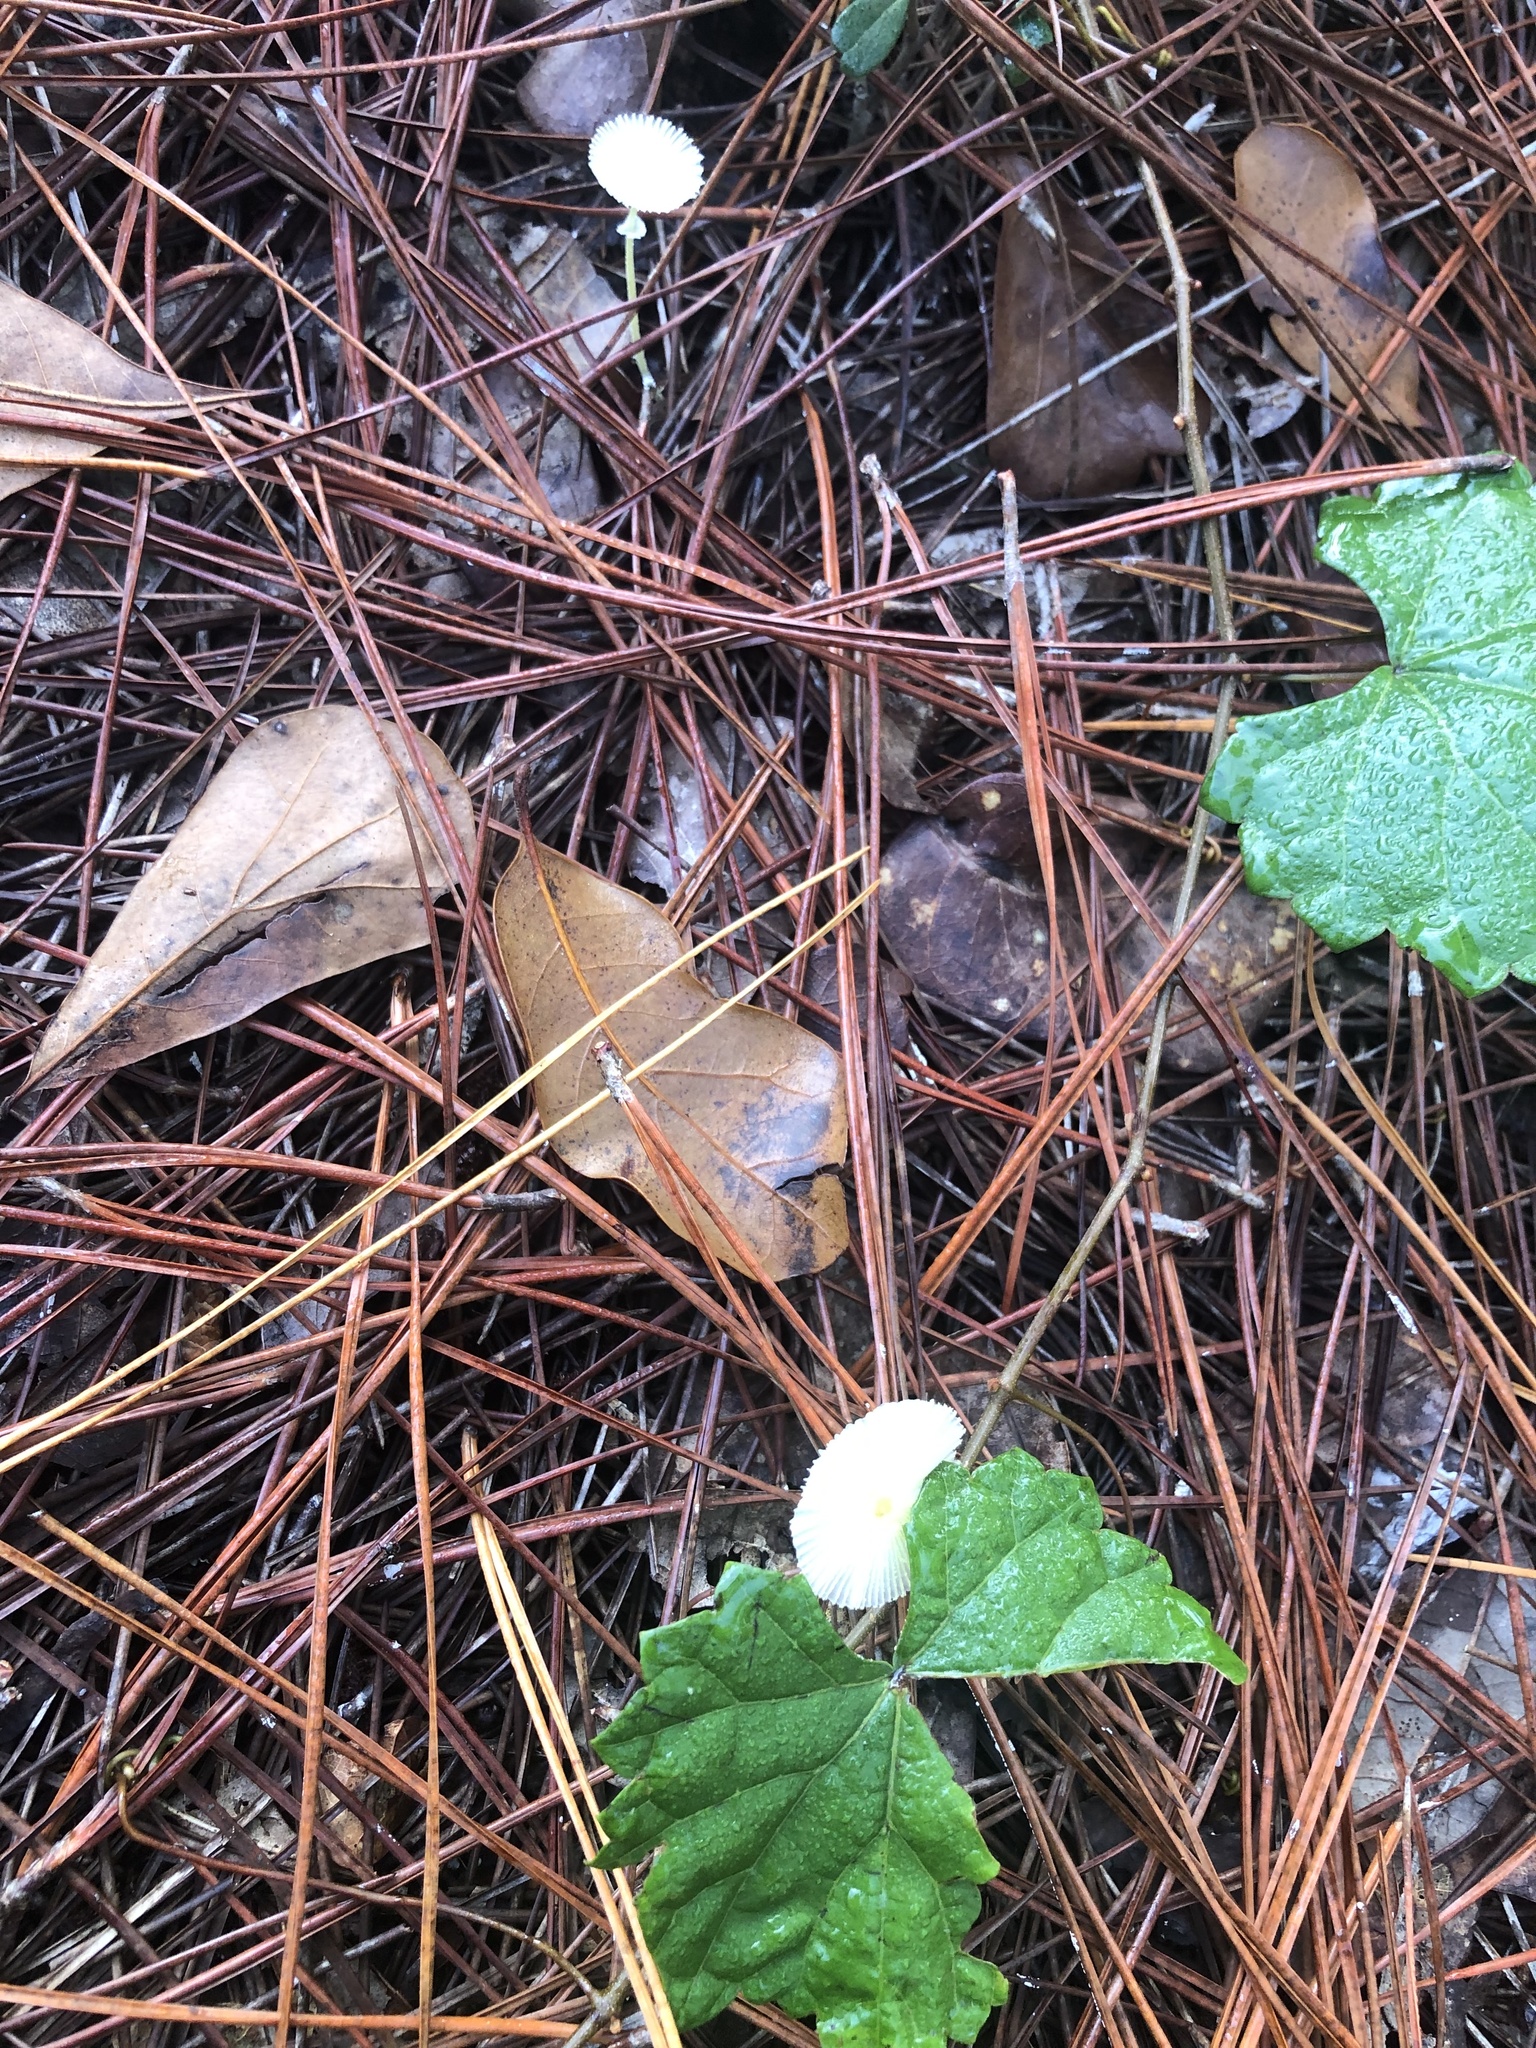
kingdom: Fungi
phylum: Basidiomycota
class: Agaricomycetes
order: Agaricales
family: Agaricaceae
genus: Leucocoprinus
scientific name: Leucocoprinus fragilissimus
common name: Fragile dapperling
